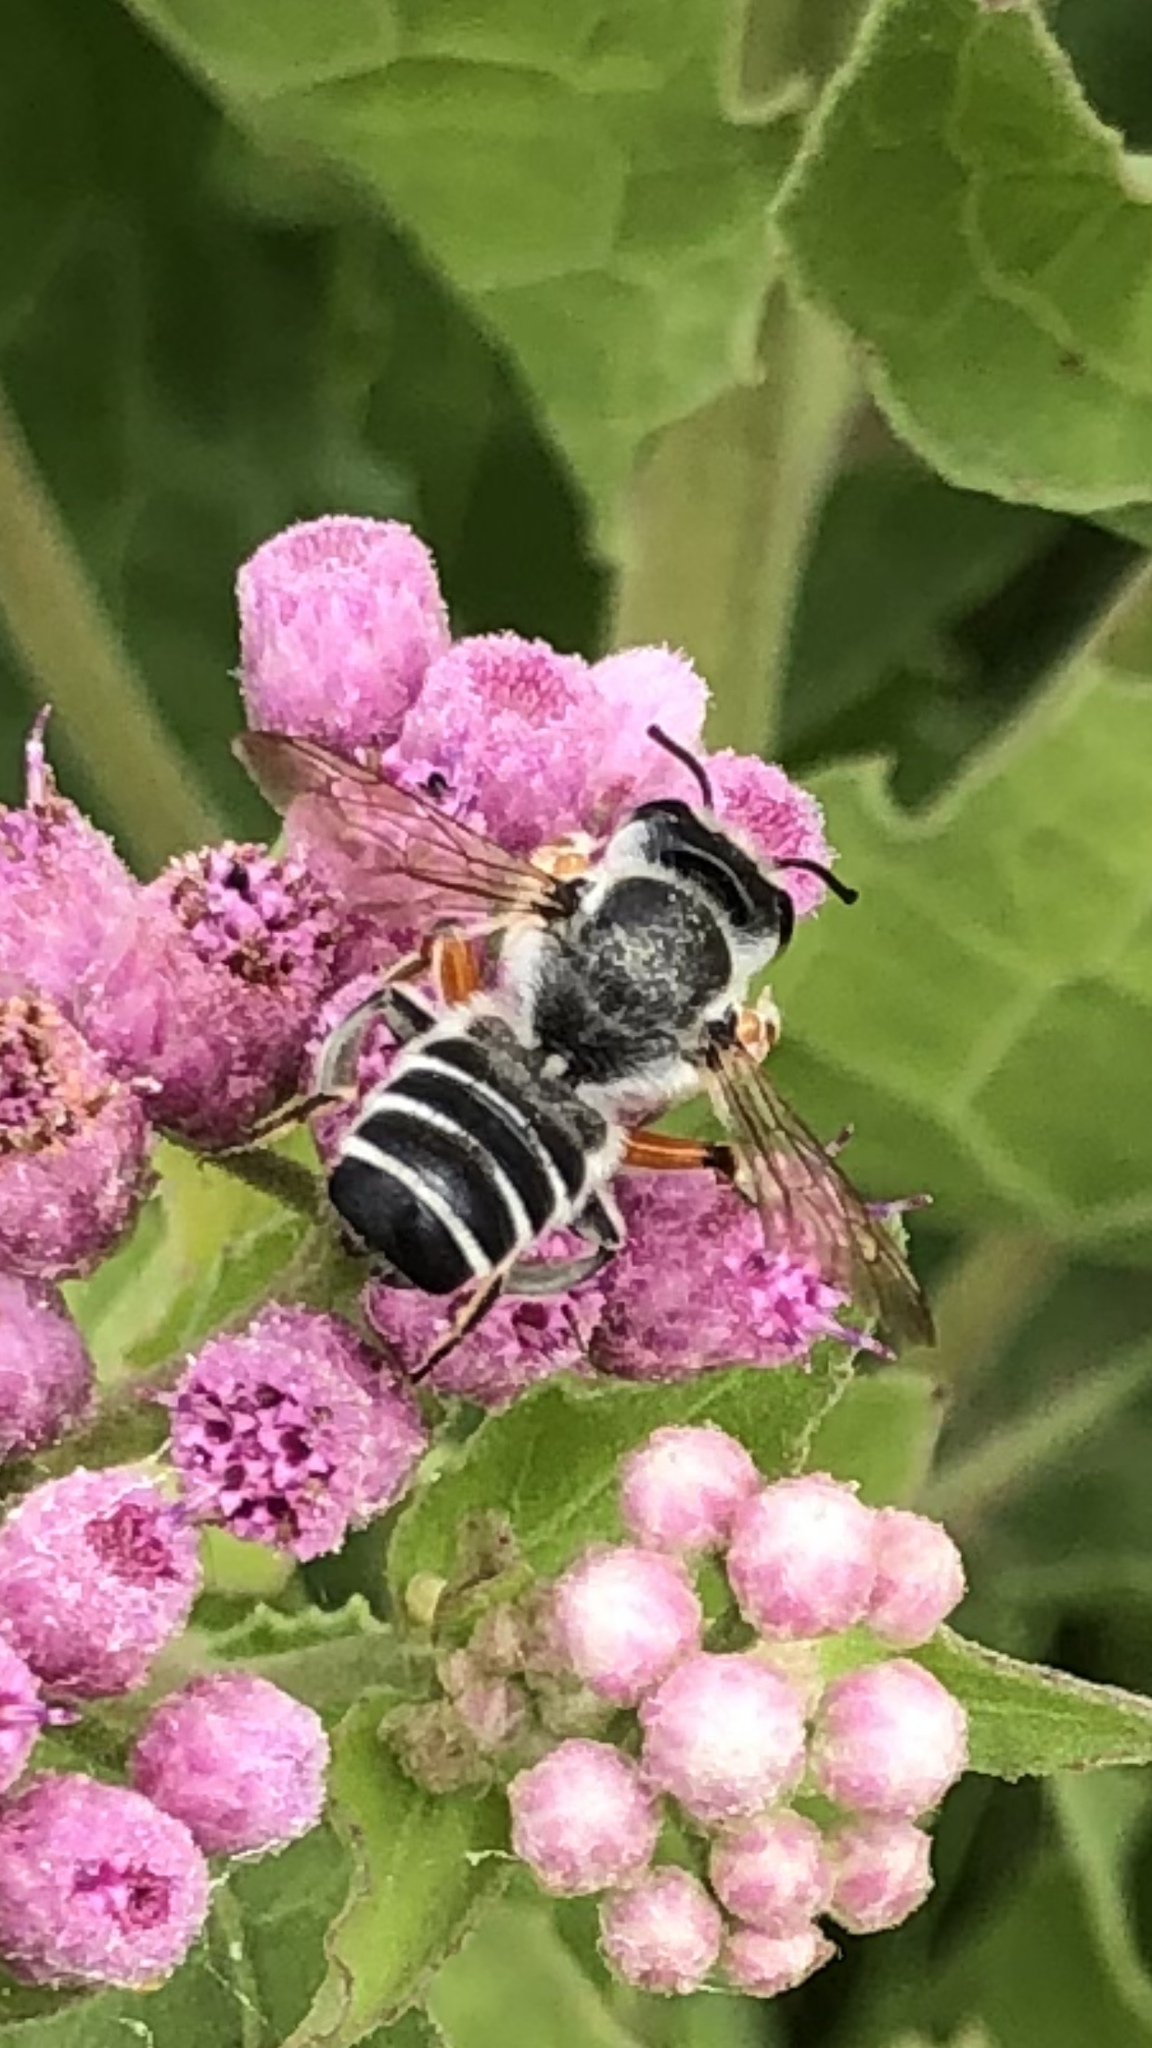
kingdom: Animalia
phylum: Arthropoda
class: Insecta
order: Hymenoptera
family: Megachilidae
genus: Megachile
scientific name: Megachile policaris
